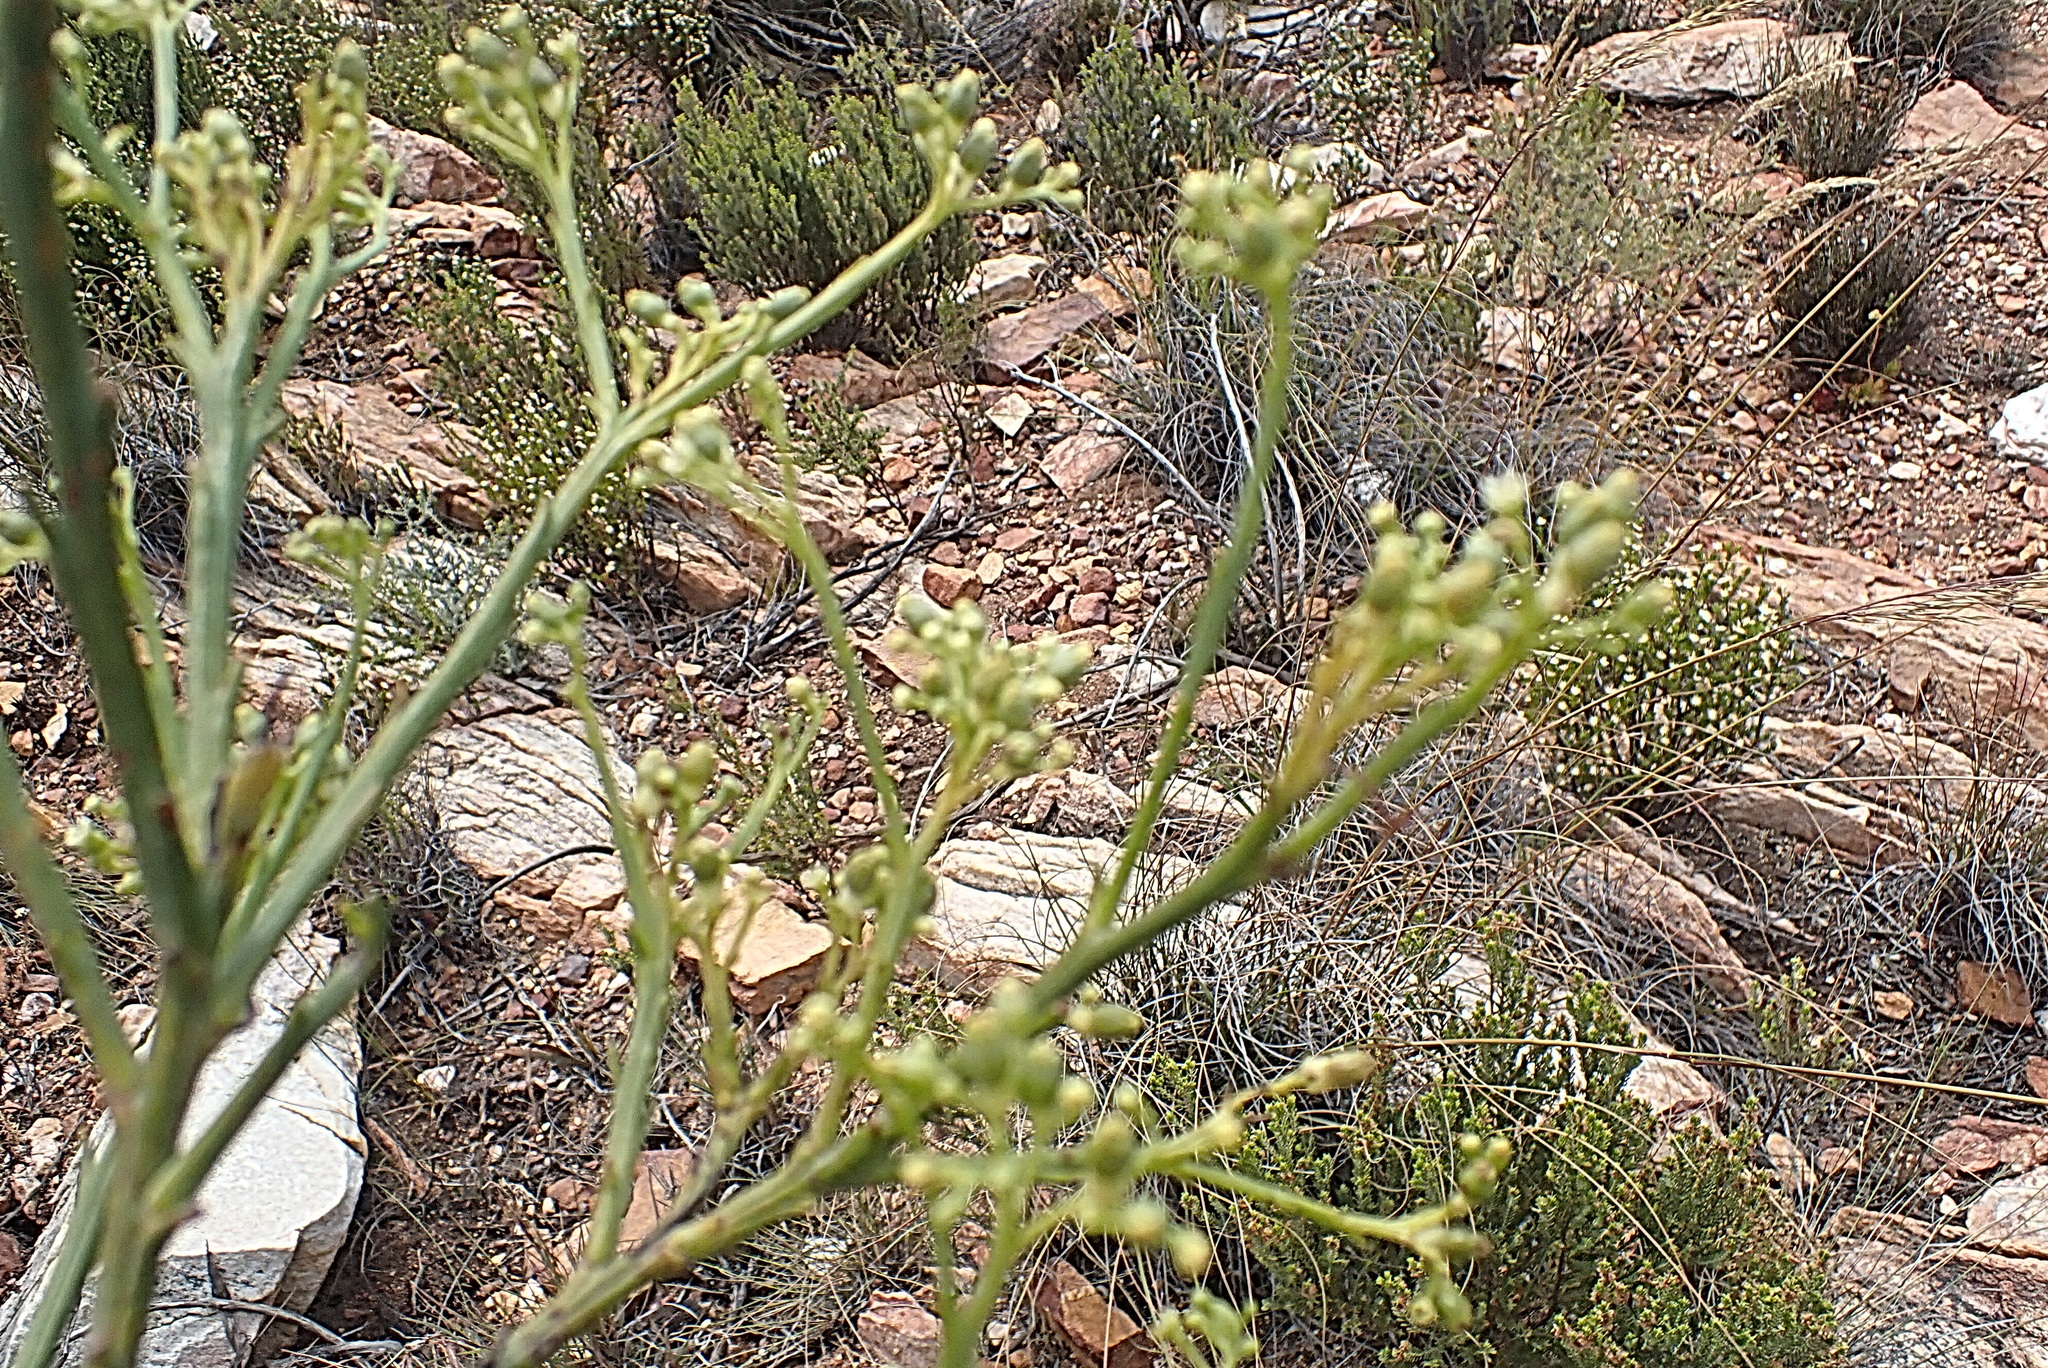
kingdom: Plantae
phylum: Tracheophyta
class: Magnoliopsida
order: Santalales
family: Thesiaceae
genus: Thesium
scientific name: Thesium strictum
